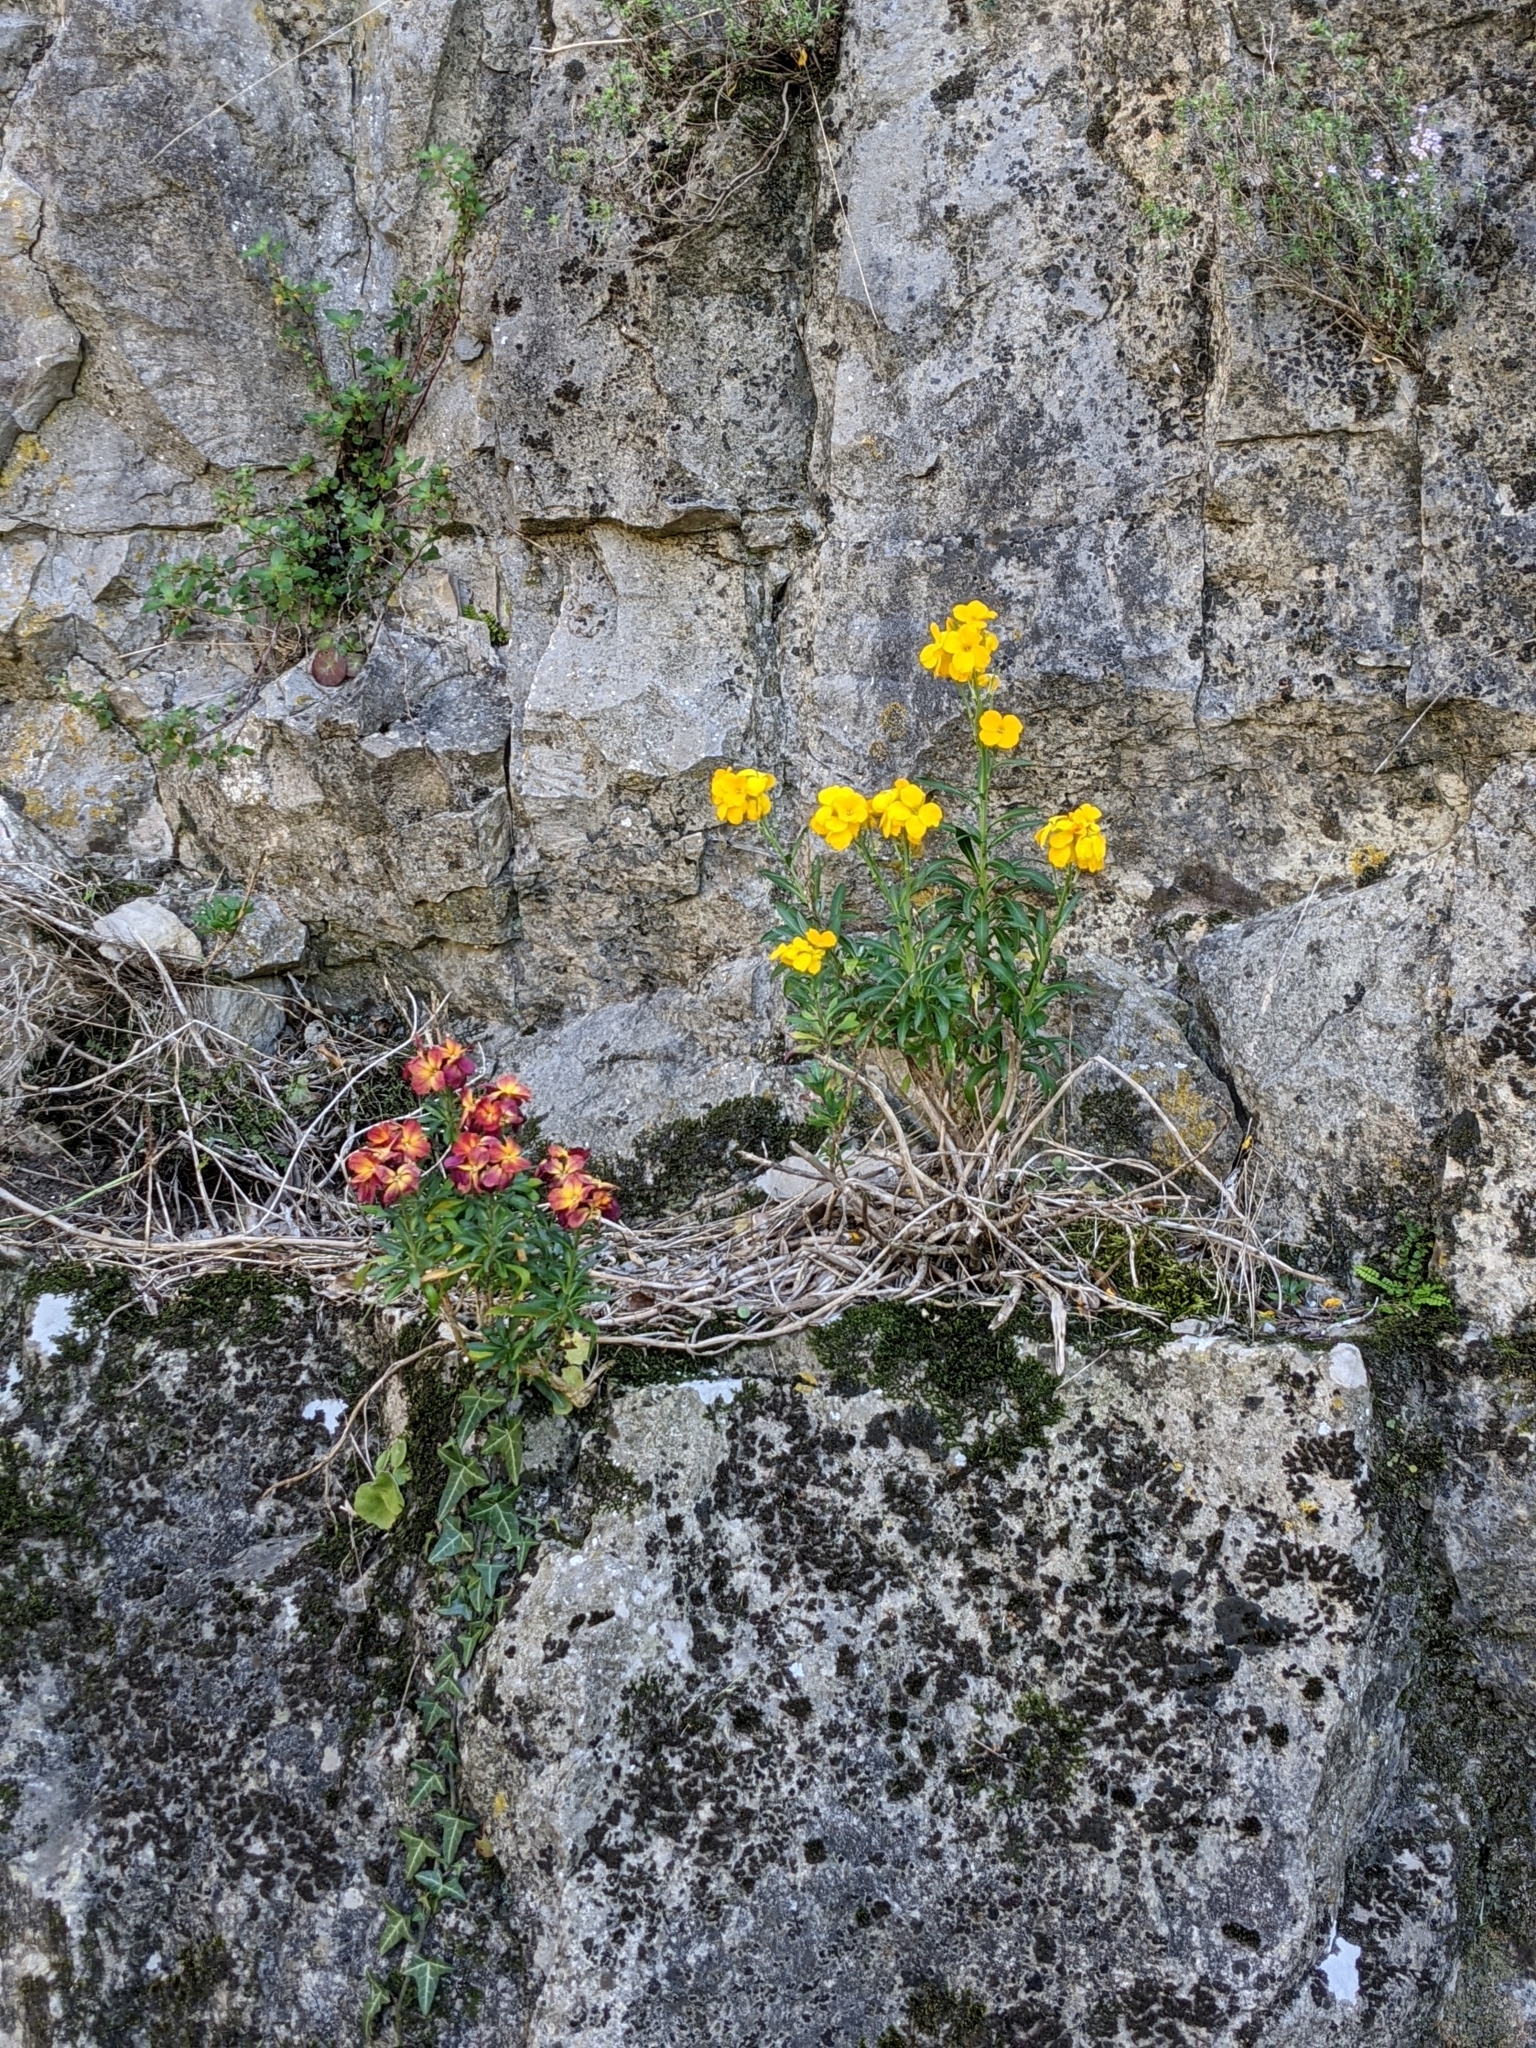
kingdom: Plantae
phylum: Tracheophyta
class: Magnoliopsida
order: Brassicales
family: Brassicaceae
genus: Erysimum
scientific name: Erysimum cheiri
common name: Wallflower
